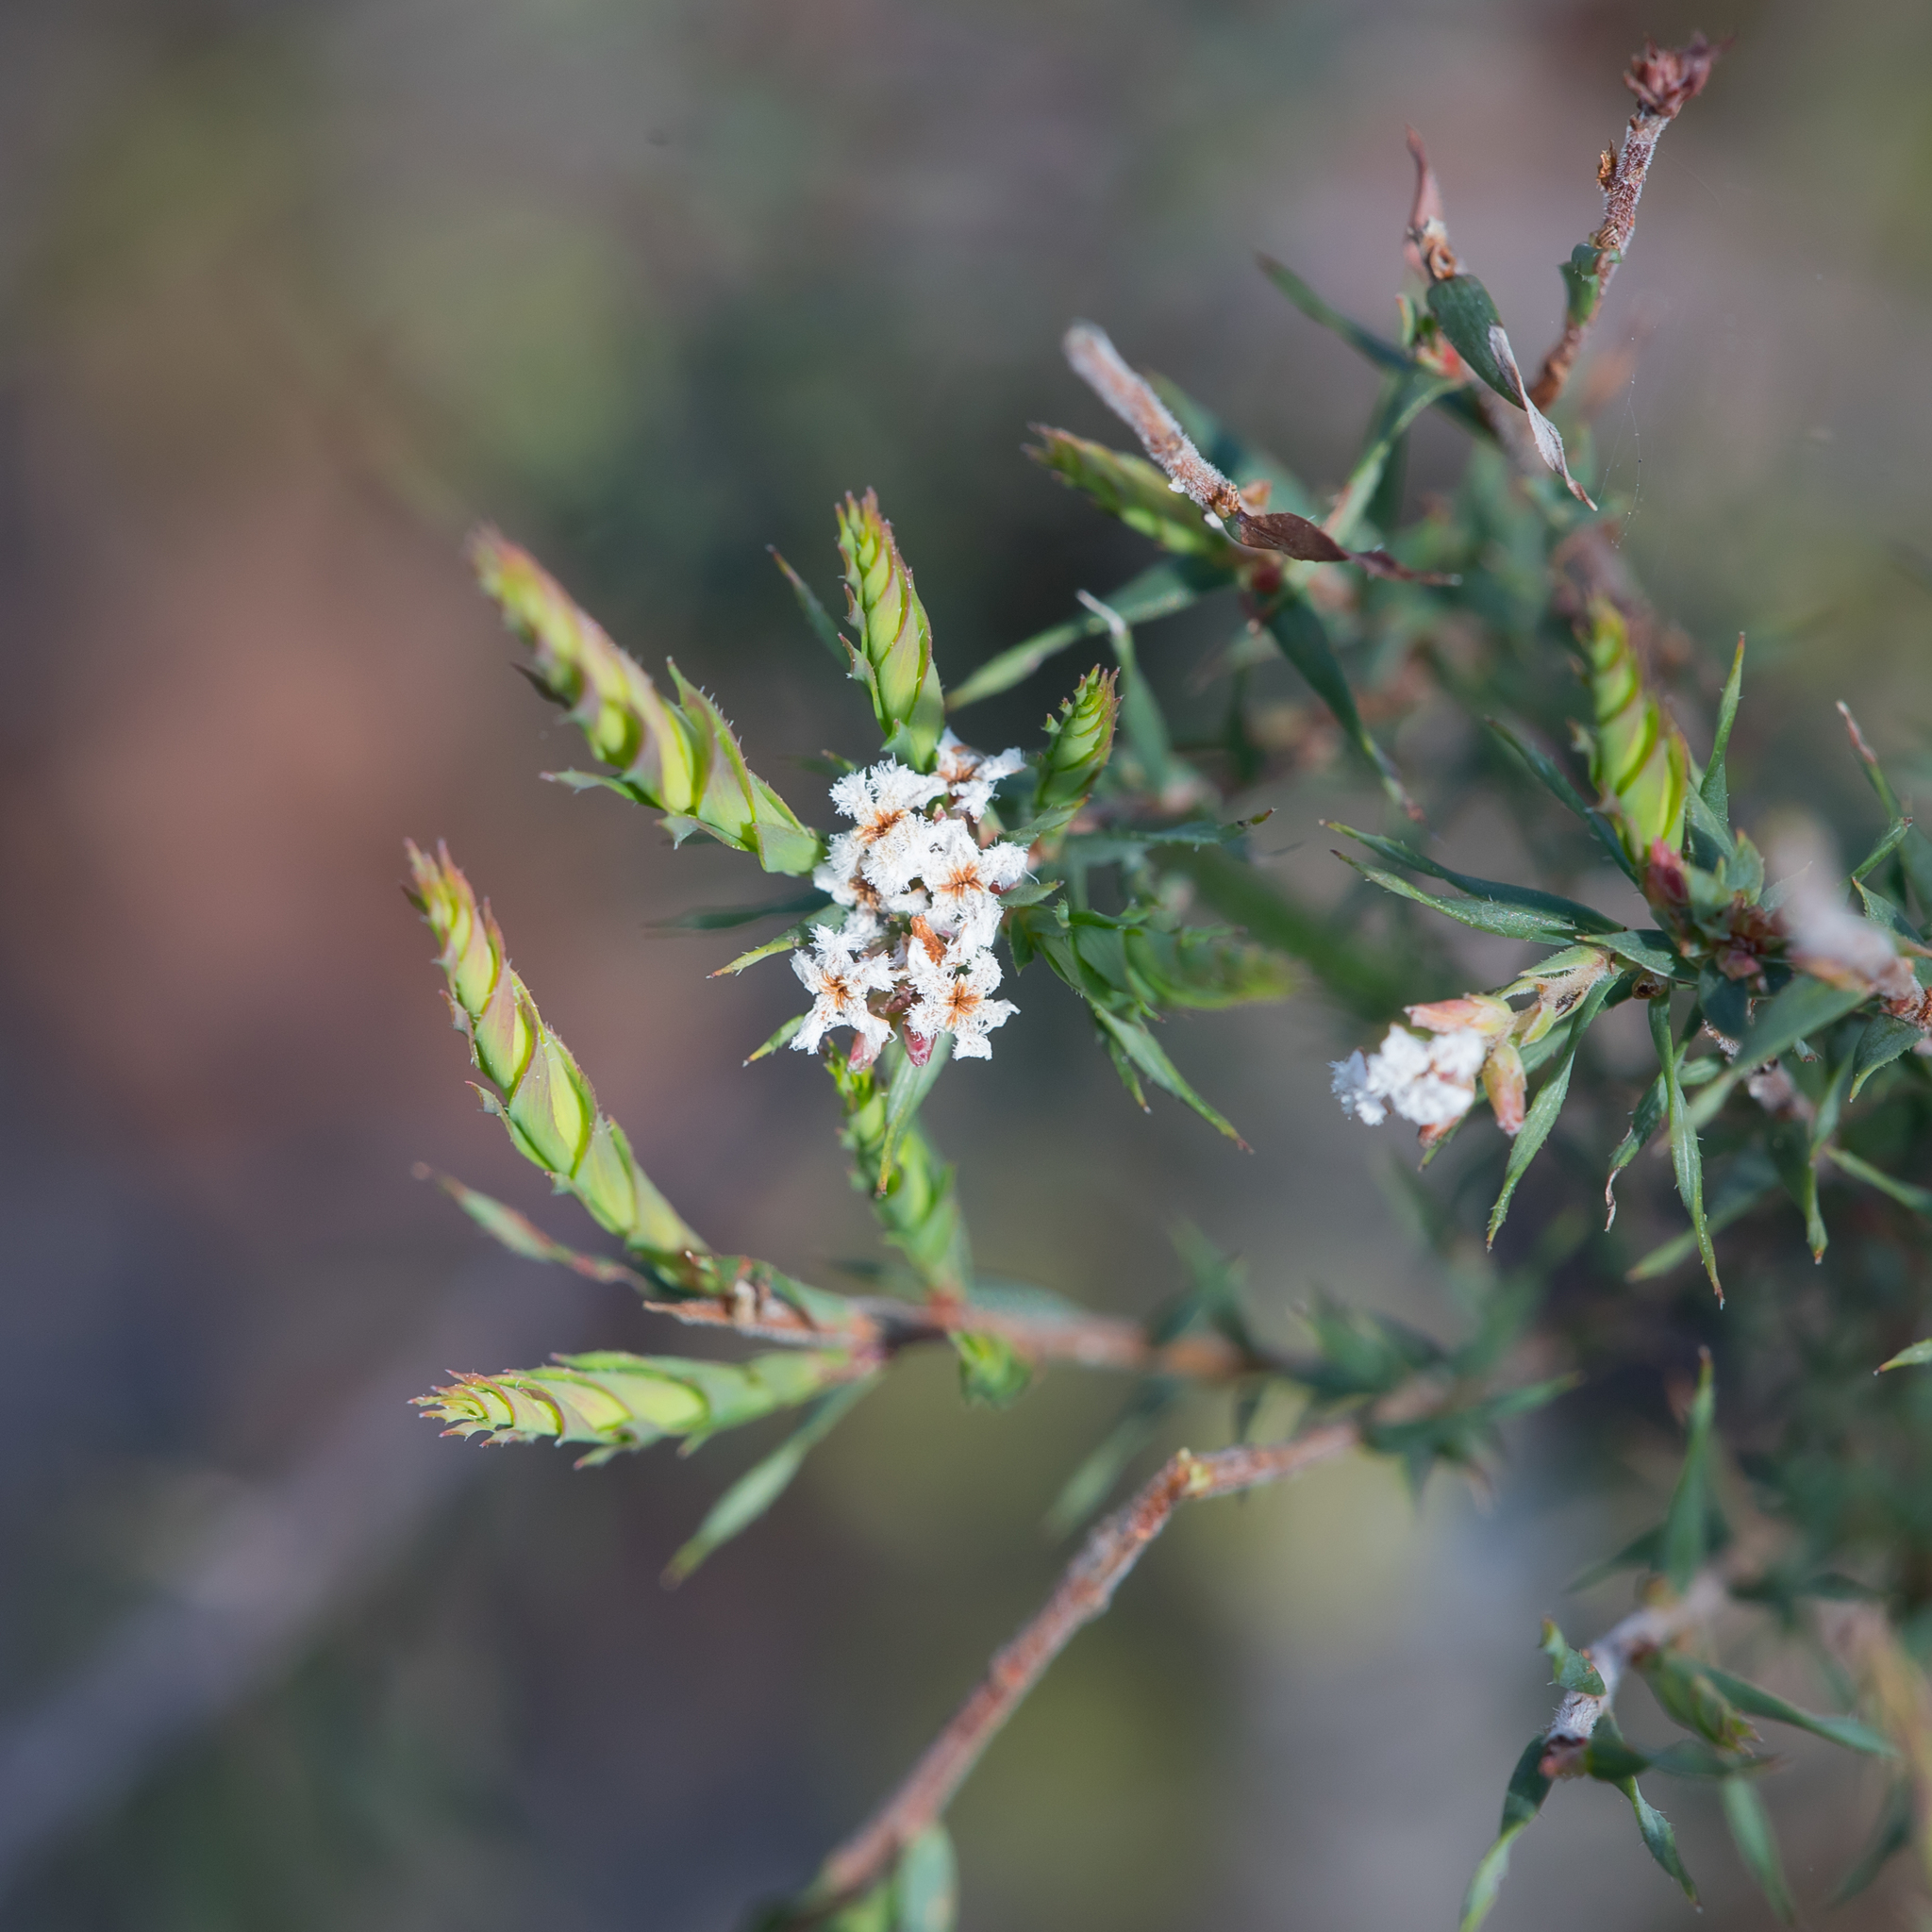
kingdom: Plantae
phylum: Tracheophyta
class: Magnoliopsida
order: Ericales
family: Ericaceae
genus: Leucopogon
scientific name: Leucopogon glacialis
